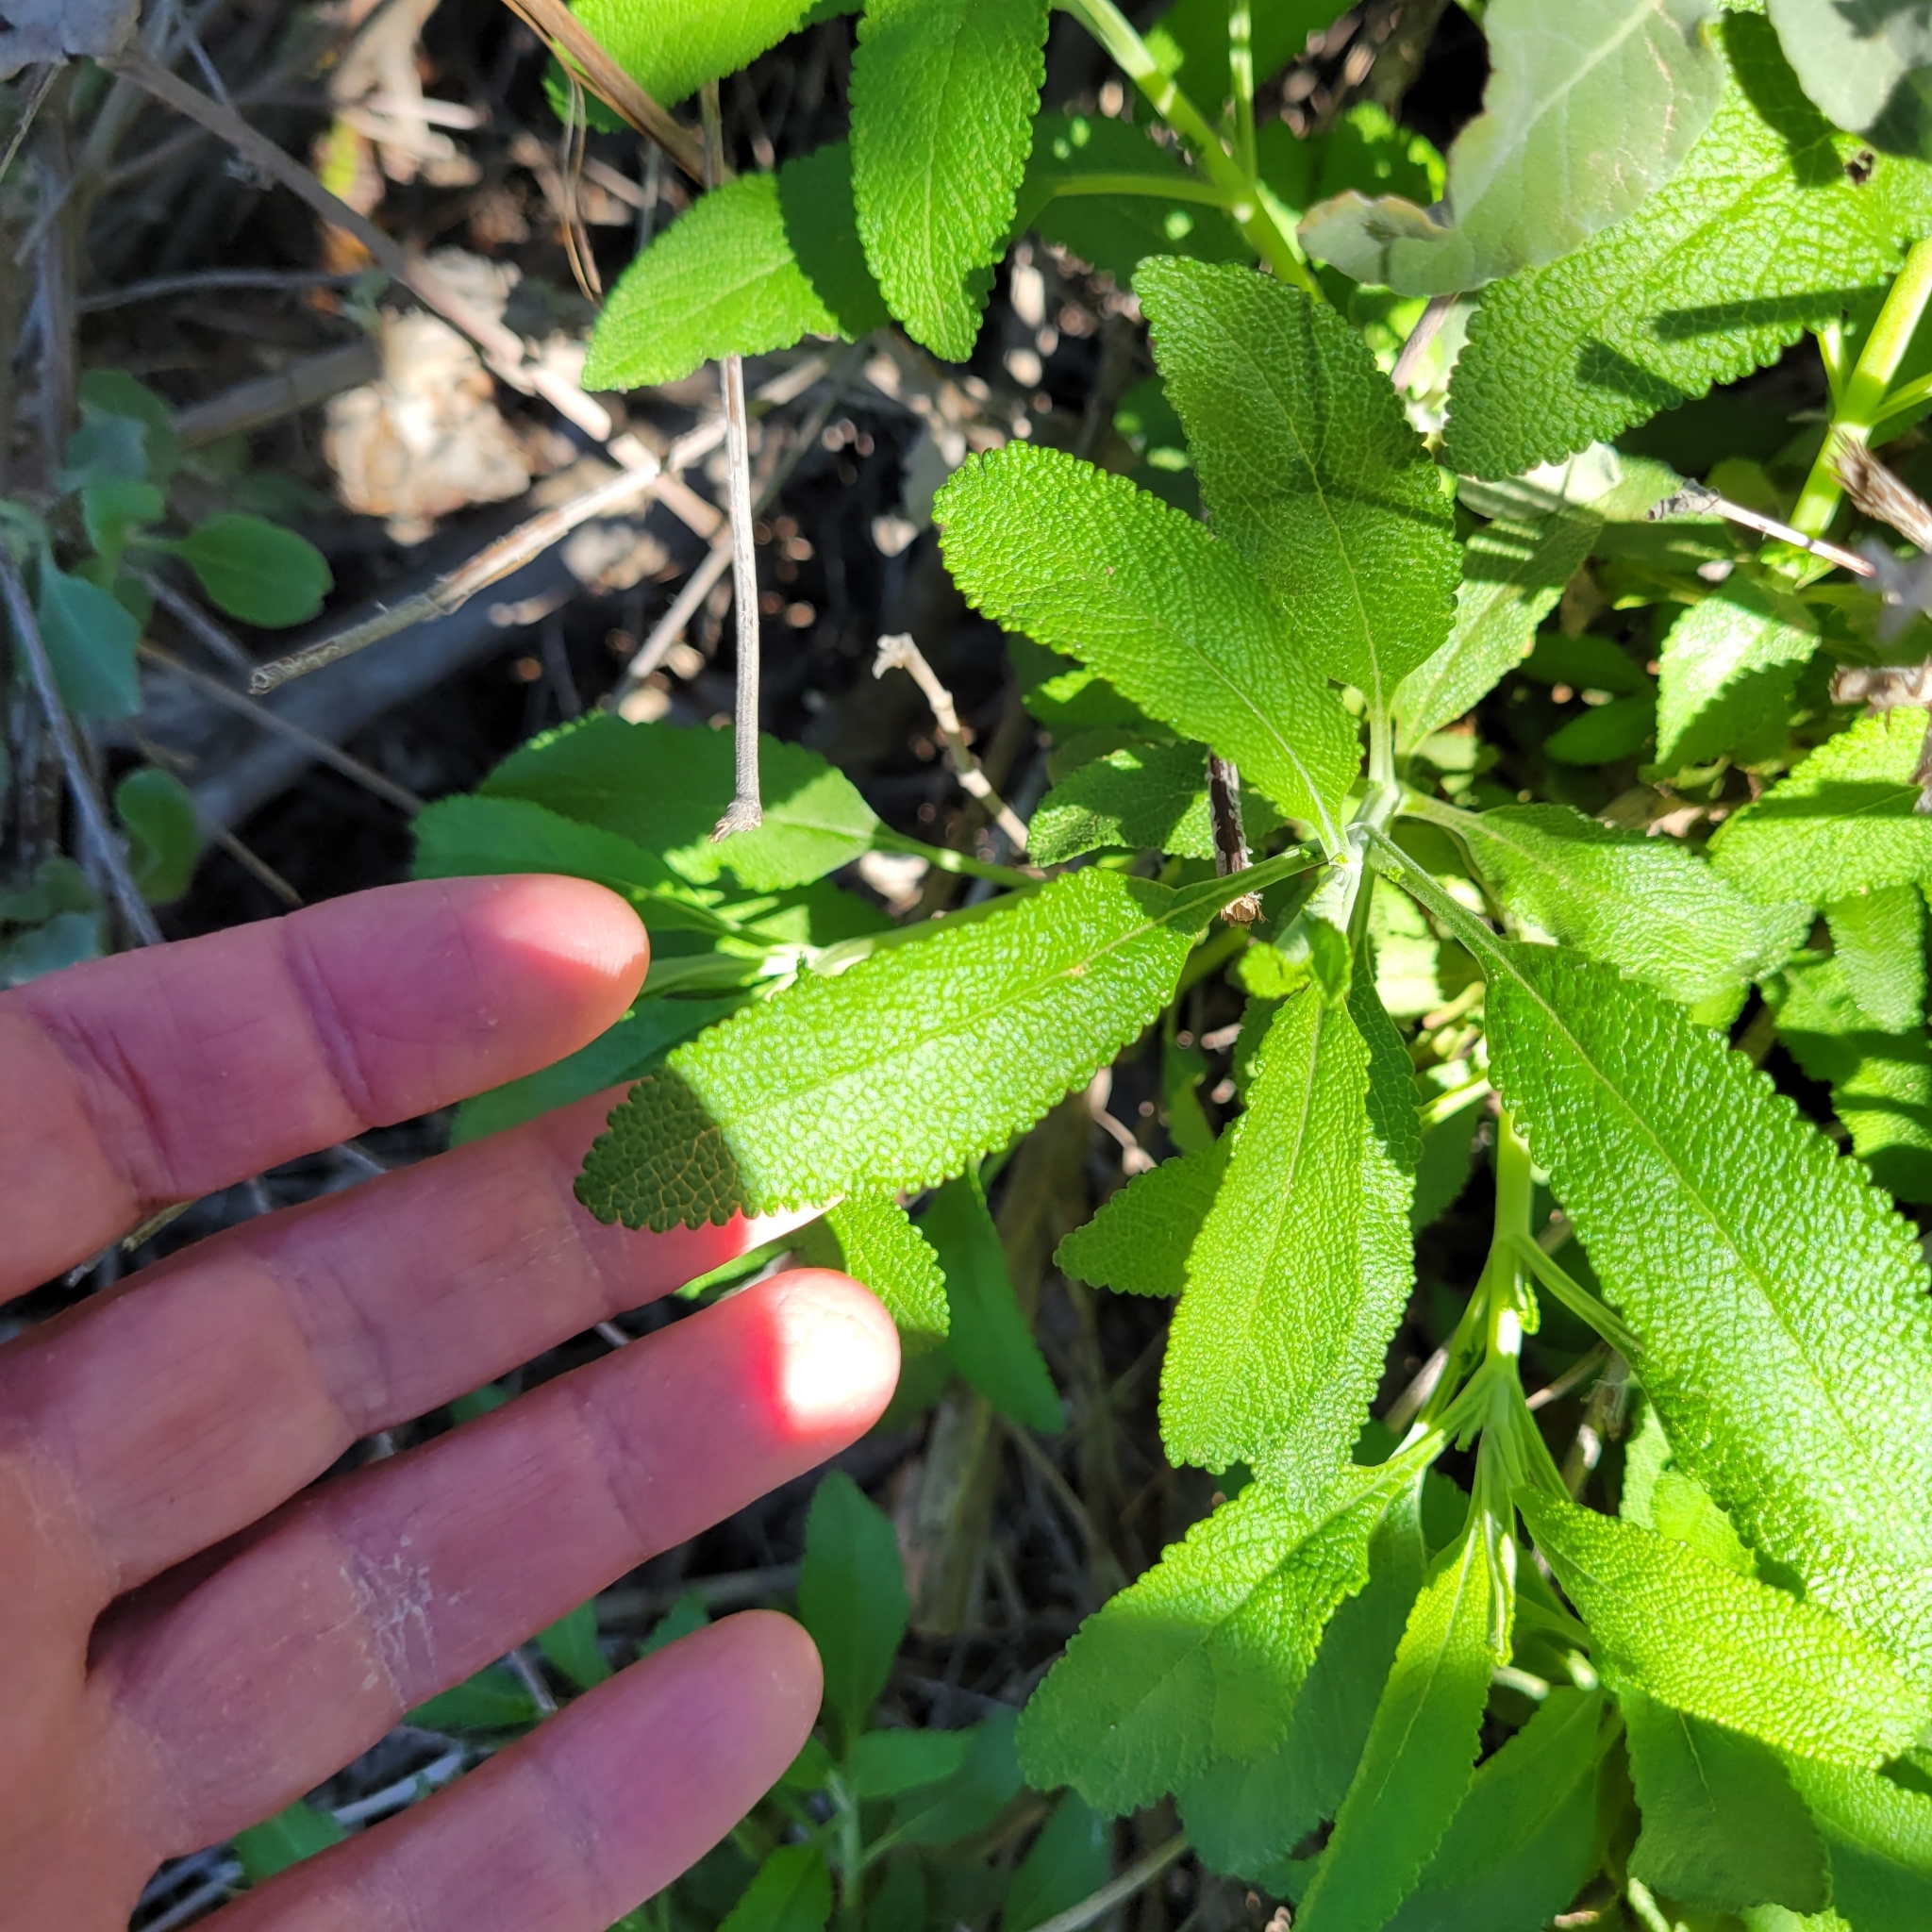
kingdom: Plantae
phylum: Tracheophyta
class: Magnoliopsida
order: Lamiales
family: Lamiaceae
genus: Salvia
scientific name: Salvia mellifera
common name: Black sage
